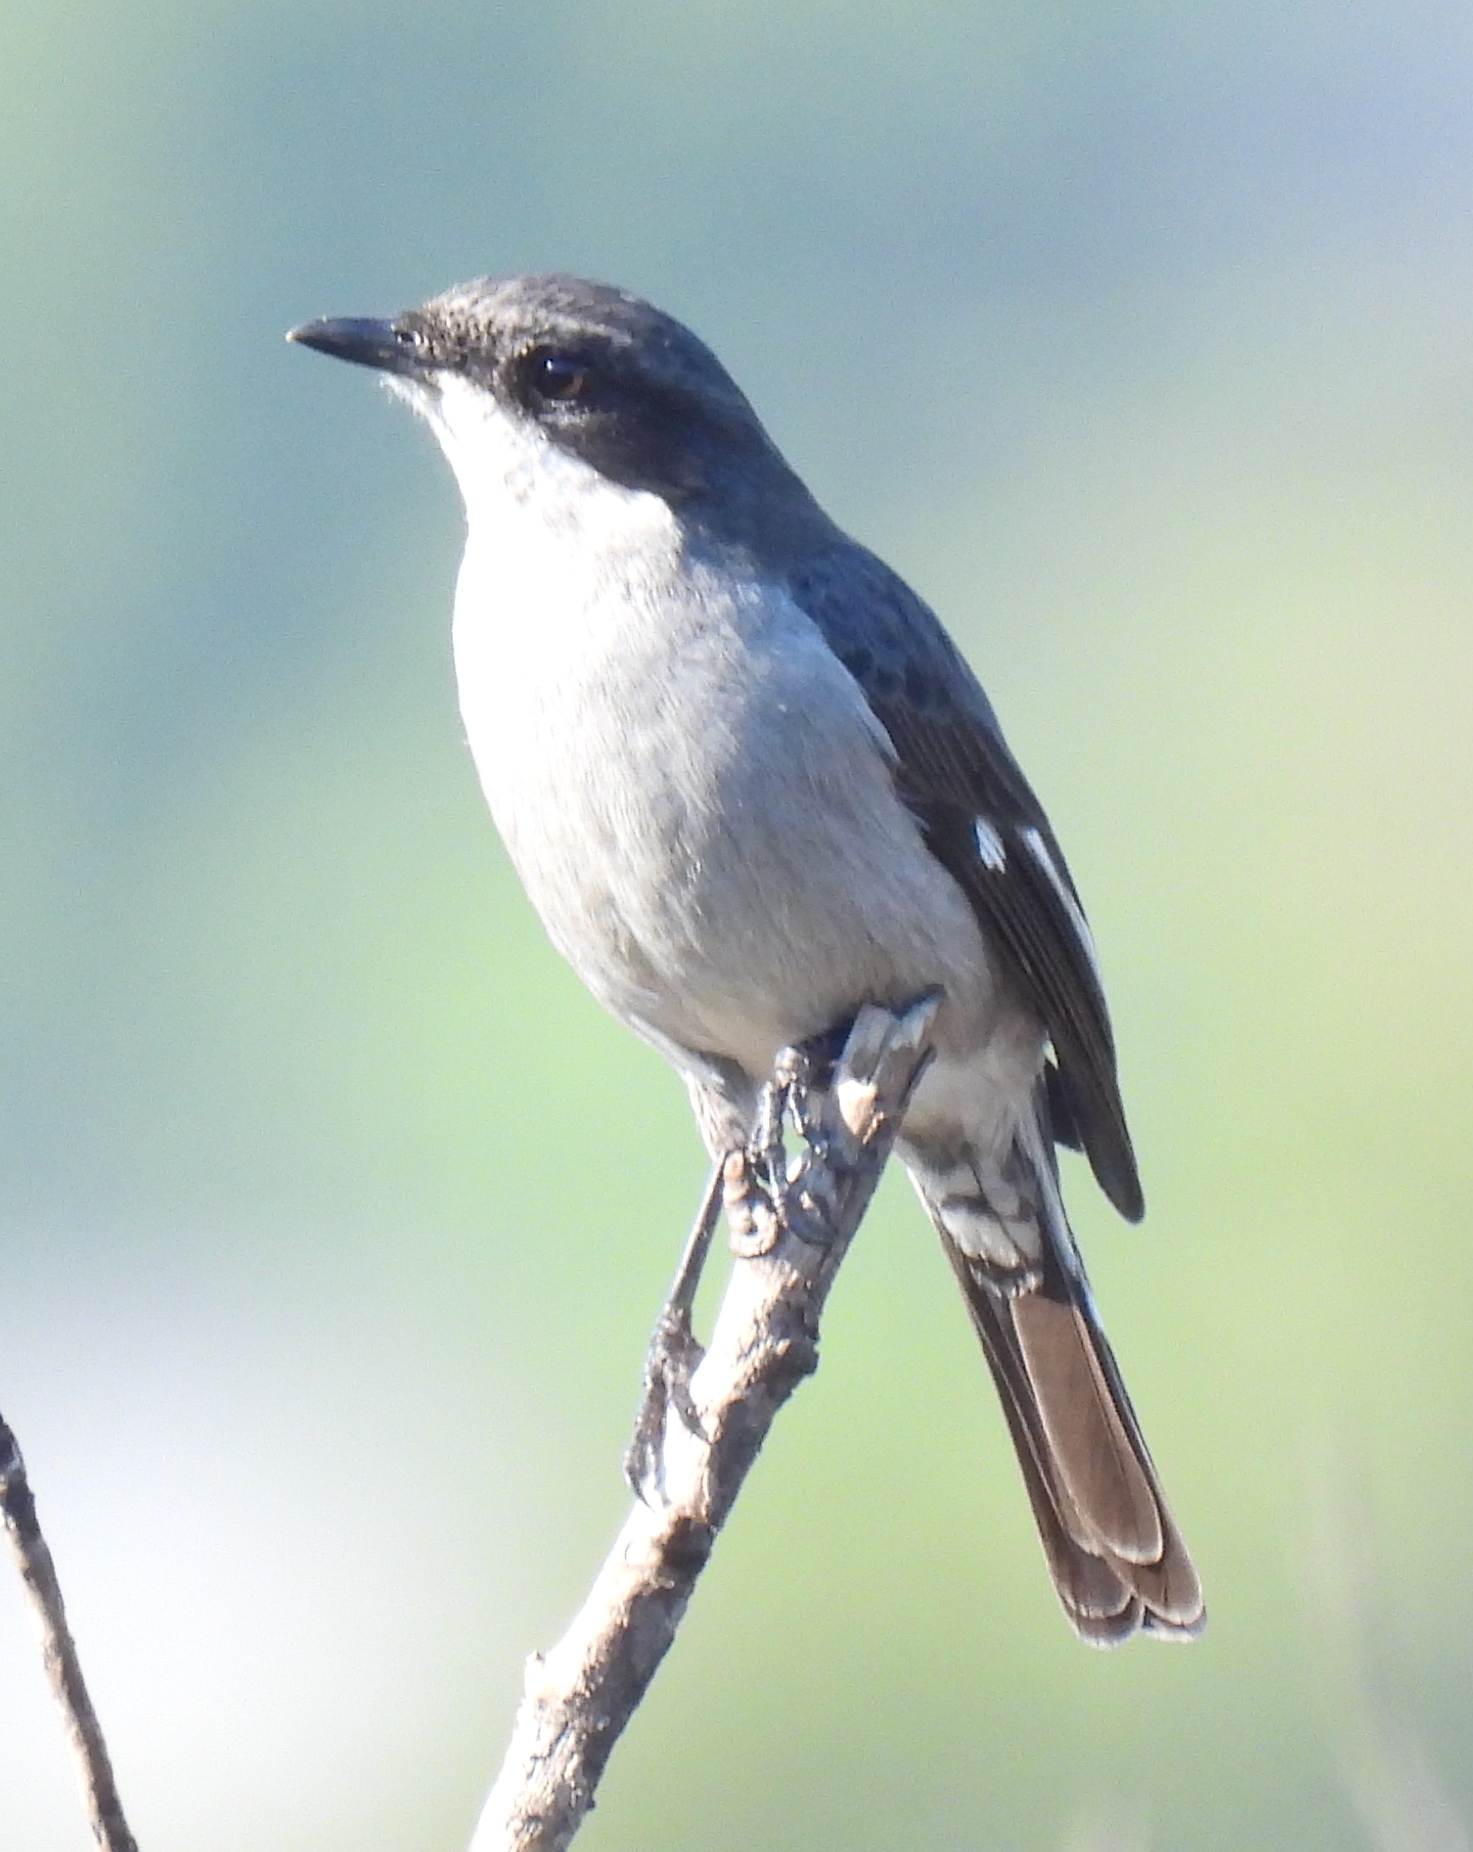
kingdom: Animalia
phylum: Chordata
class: Aves
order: Passeriformes
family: Muscicapidae
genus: Sigelus
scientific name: Sigelus silens
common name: Fiscal flycatcher
